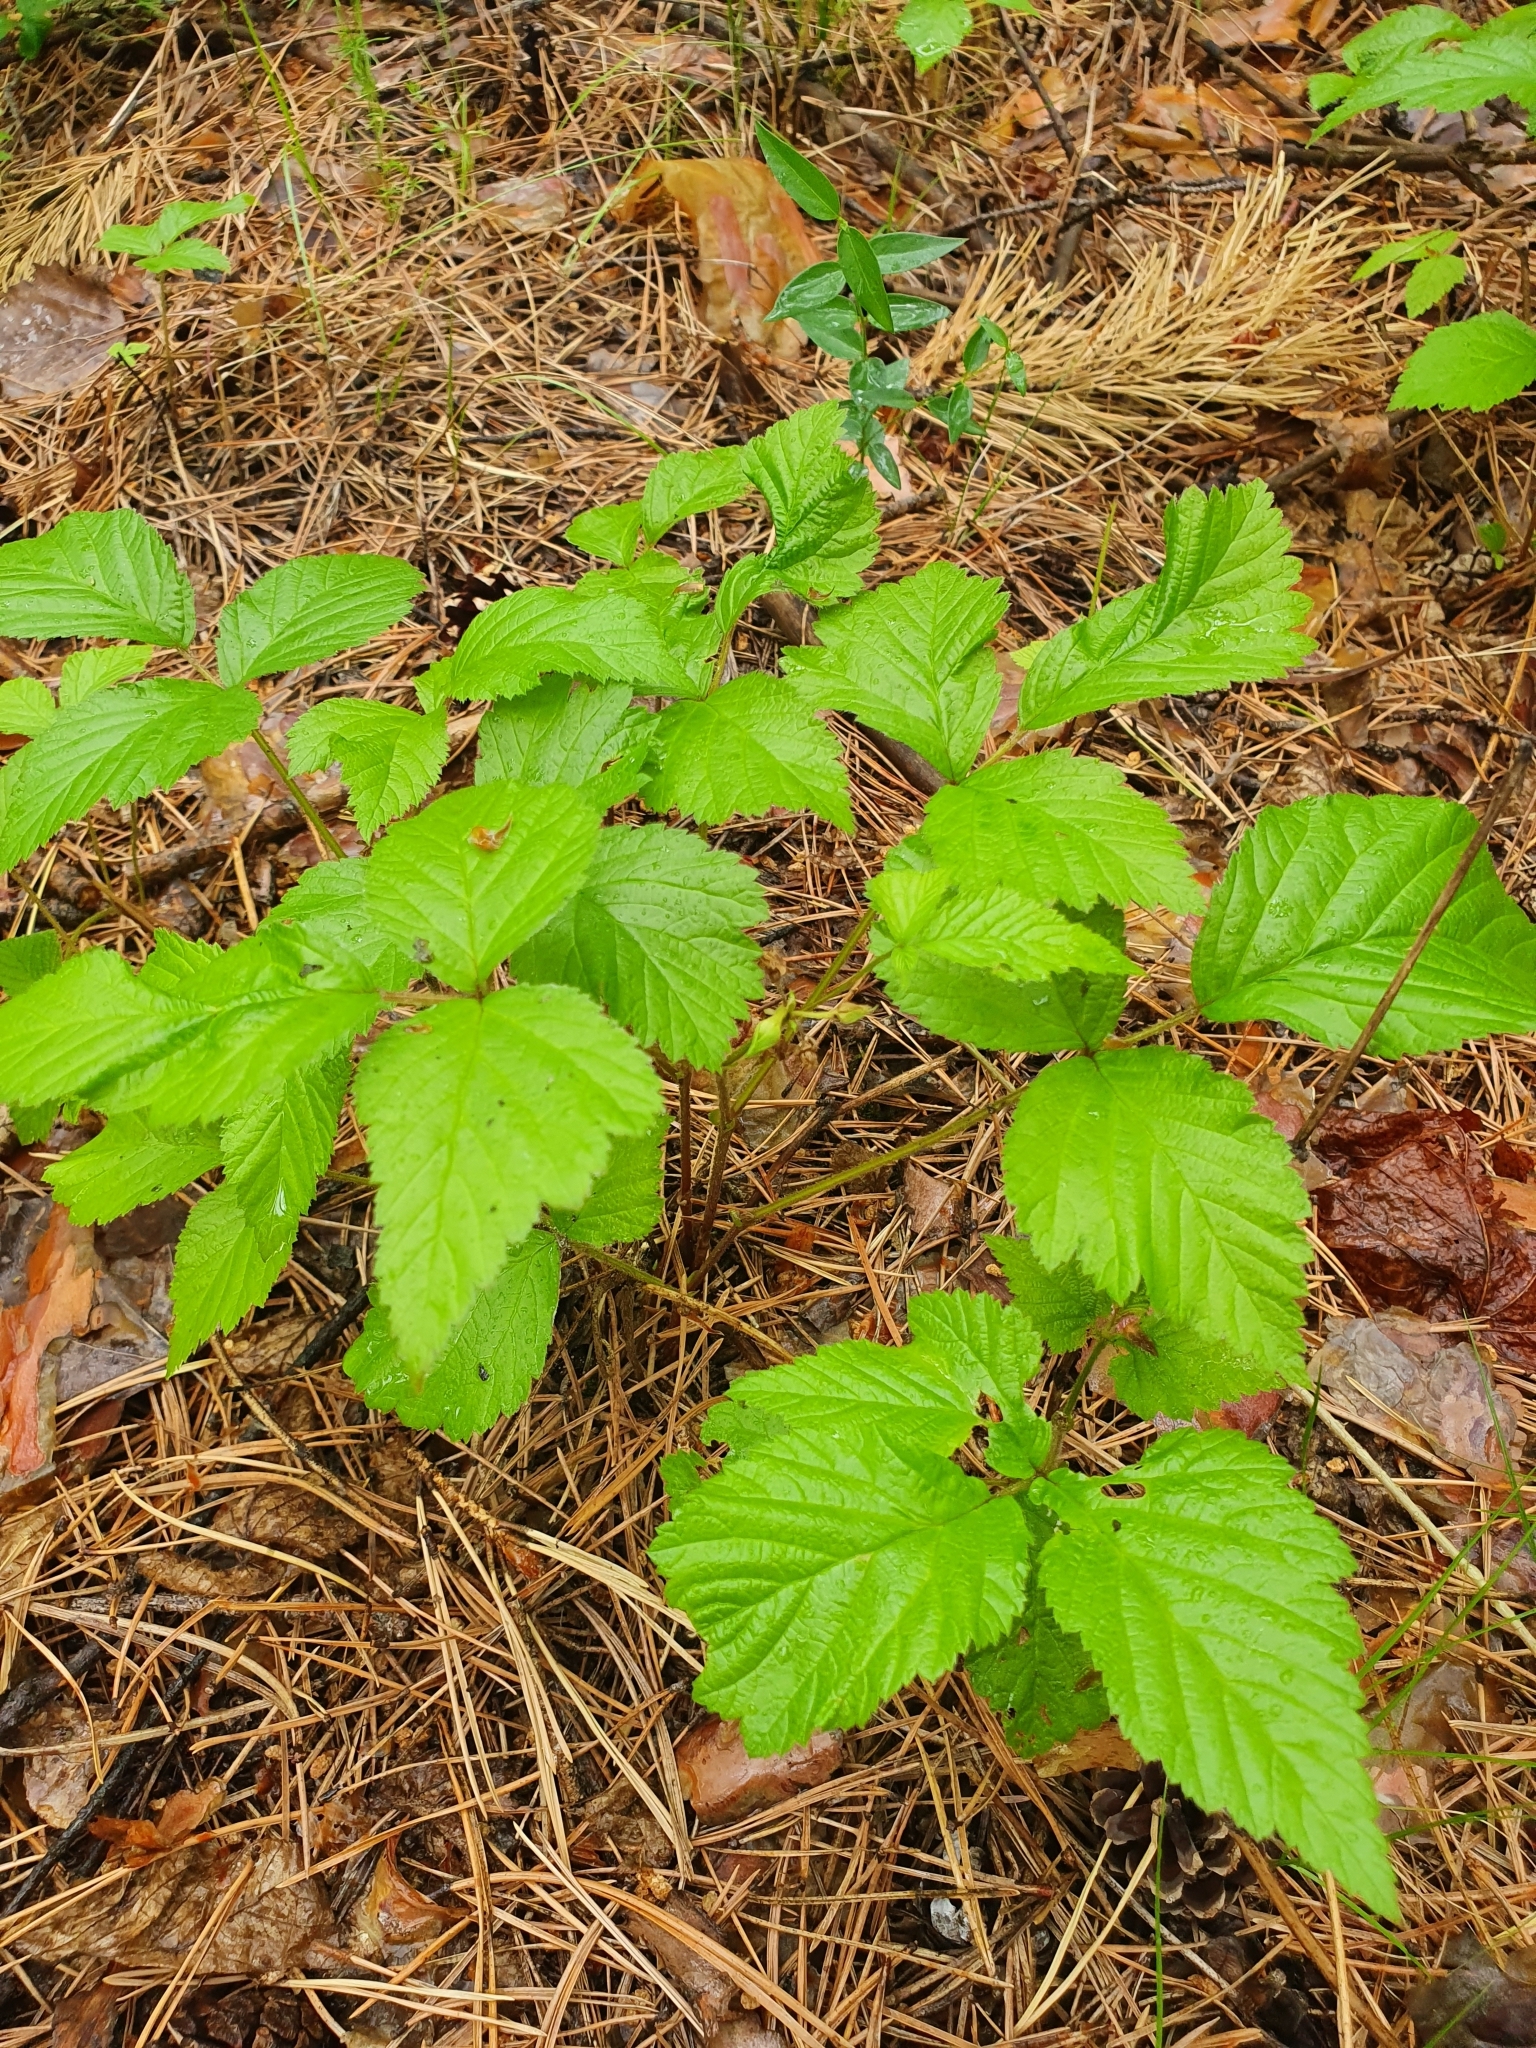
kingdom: Plantae
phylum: Tracheophyta
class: Magnoliopsida
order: Rosales
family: Rosaceae
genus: Rubus
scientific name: Rubus saxatilis
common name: Stone bramble
